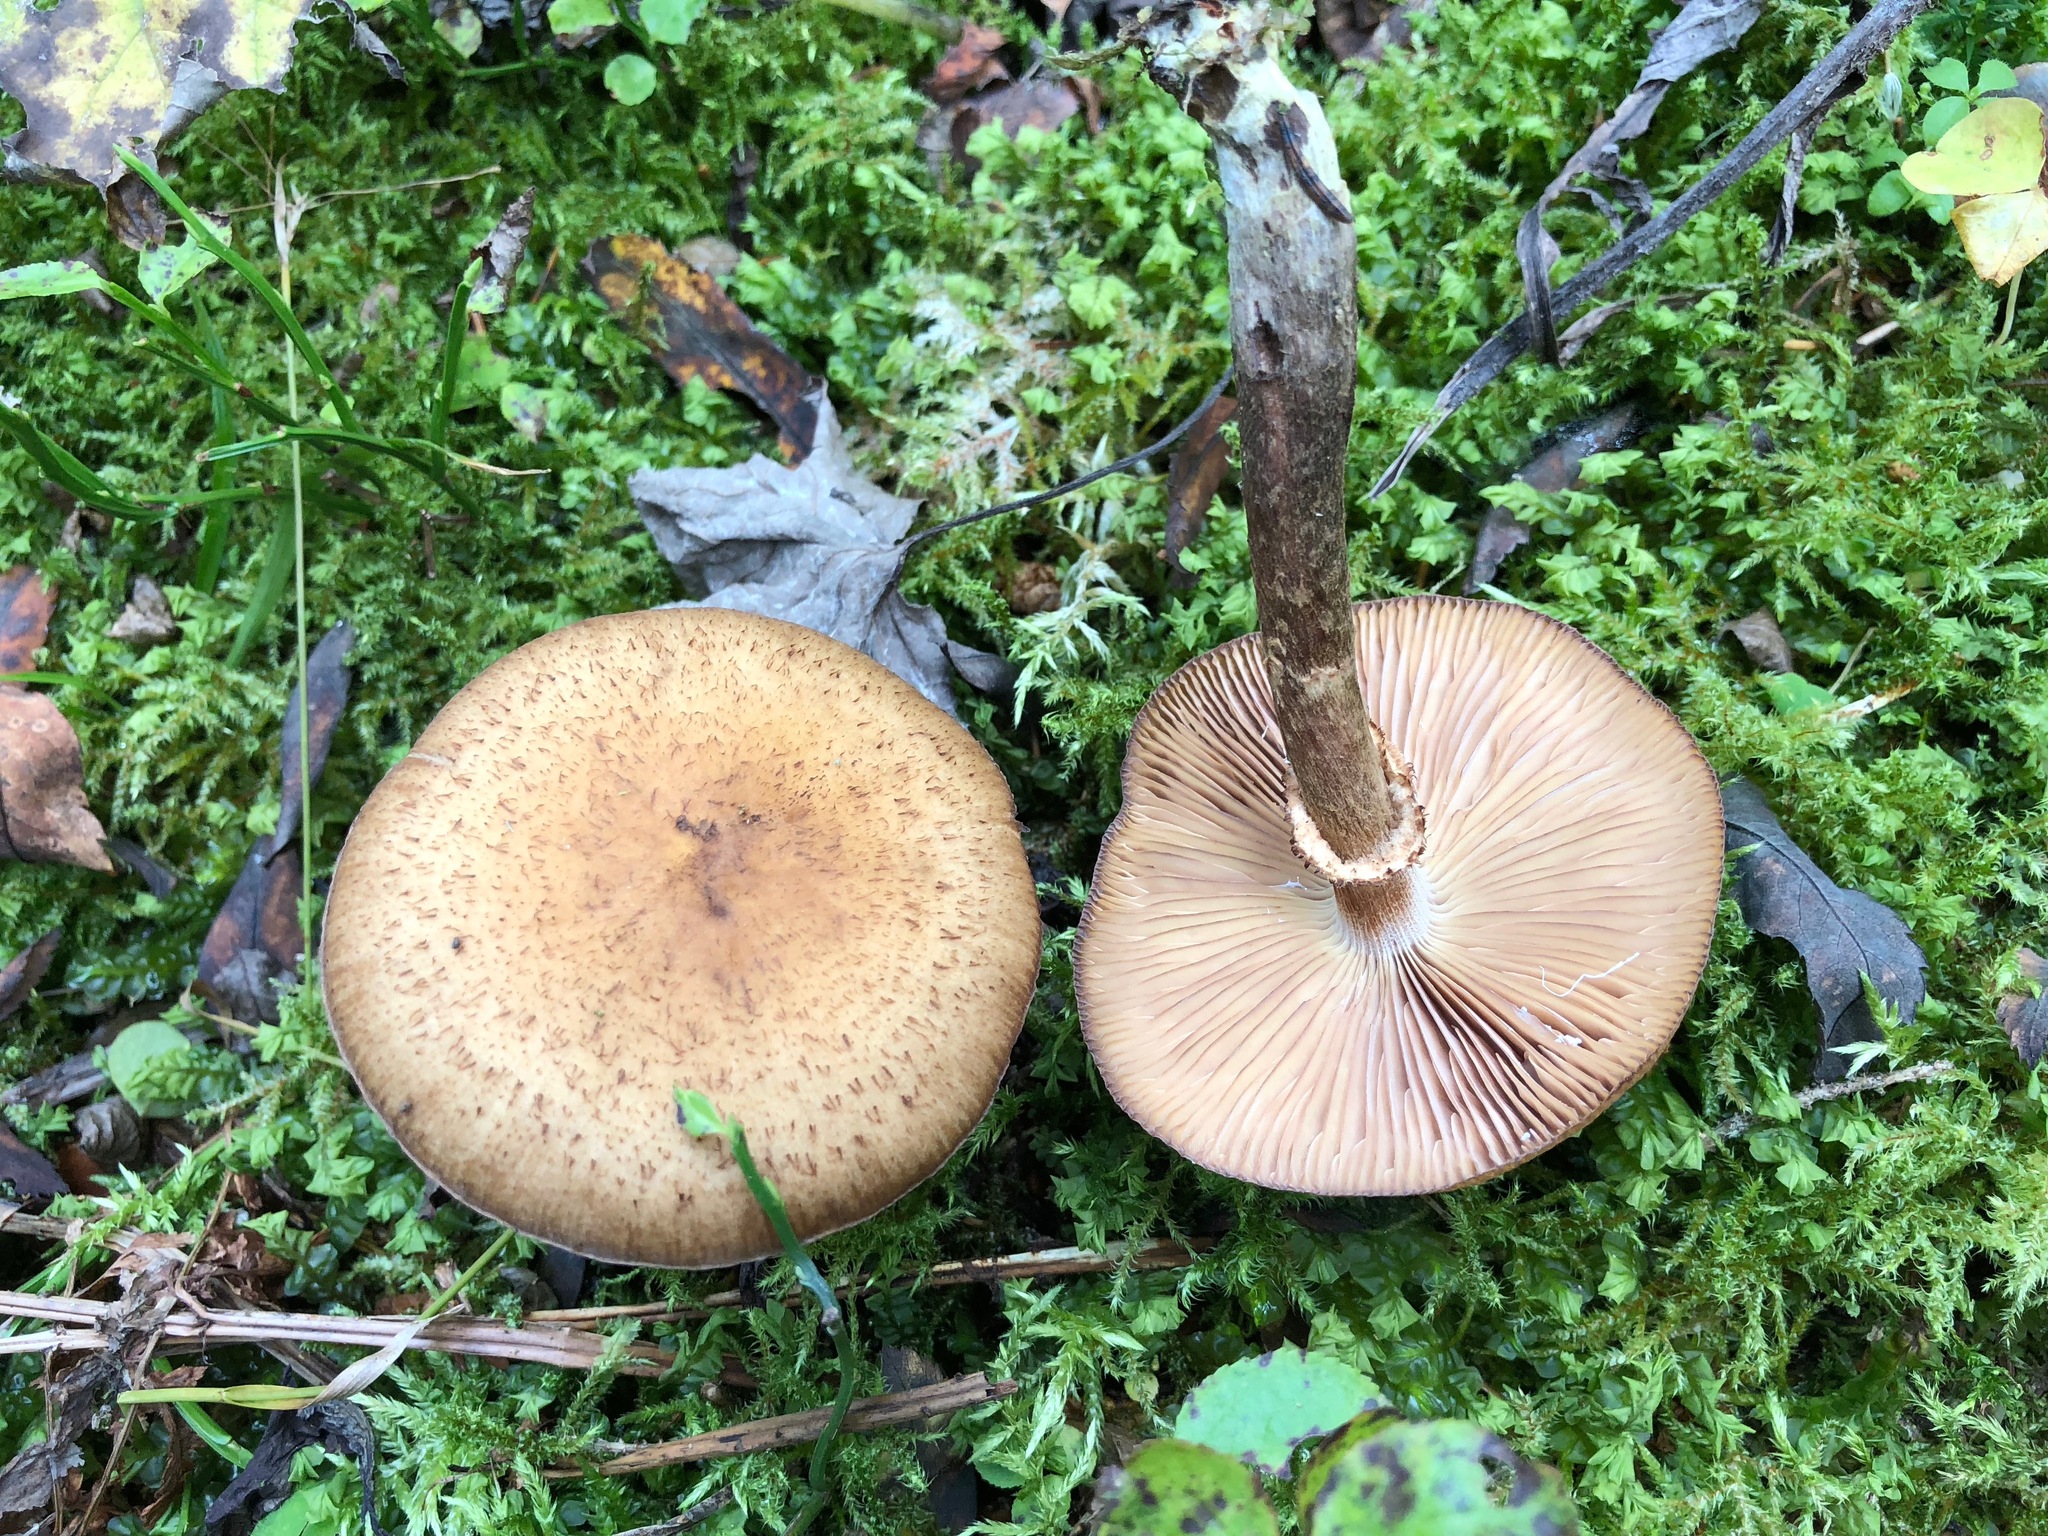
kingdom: Fungi
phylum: Basidiomycota
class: Agaricomycetes
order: Agaricales
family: Physalacriaceae
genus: Armillaria
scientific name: Armillaria mellea
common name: Honey fungus
